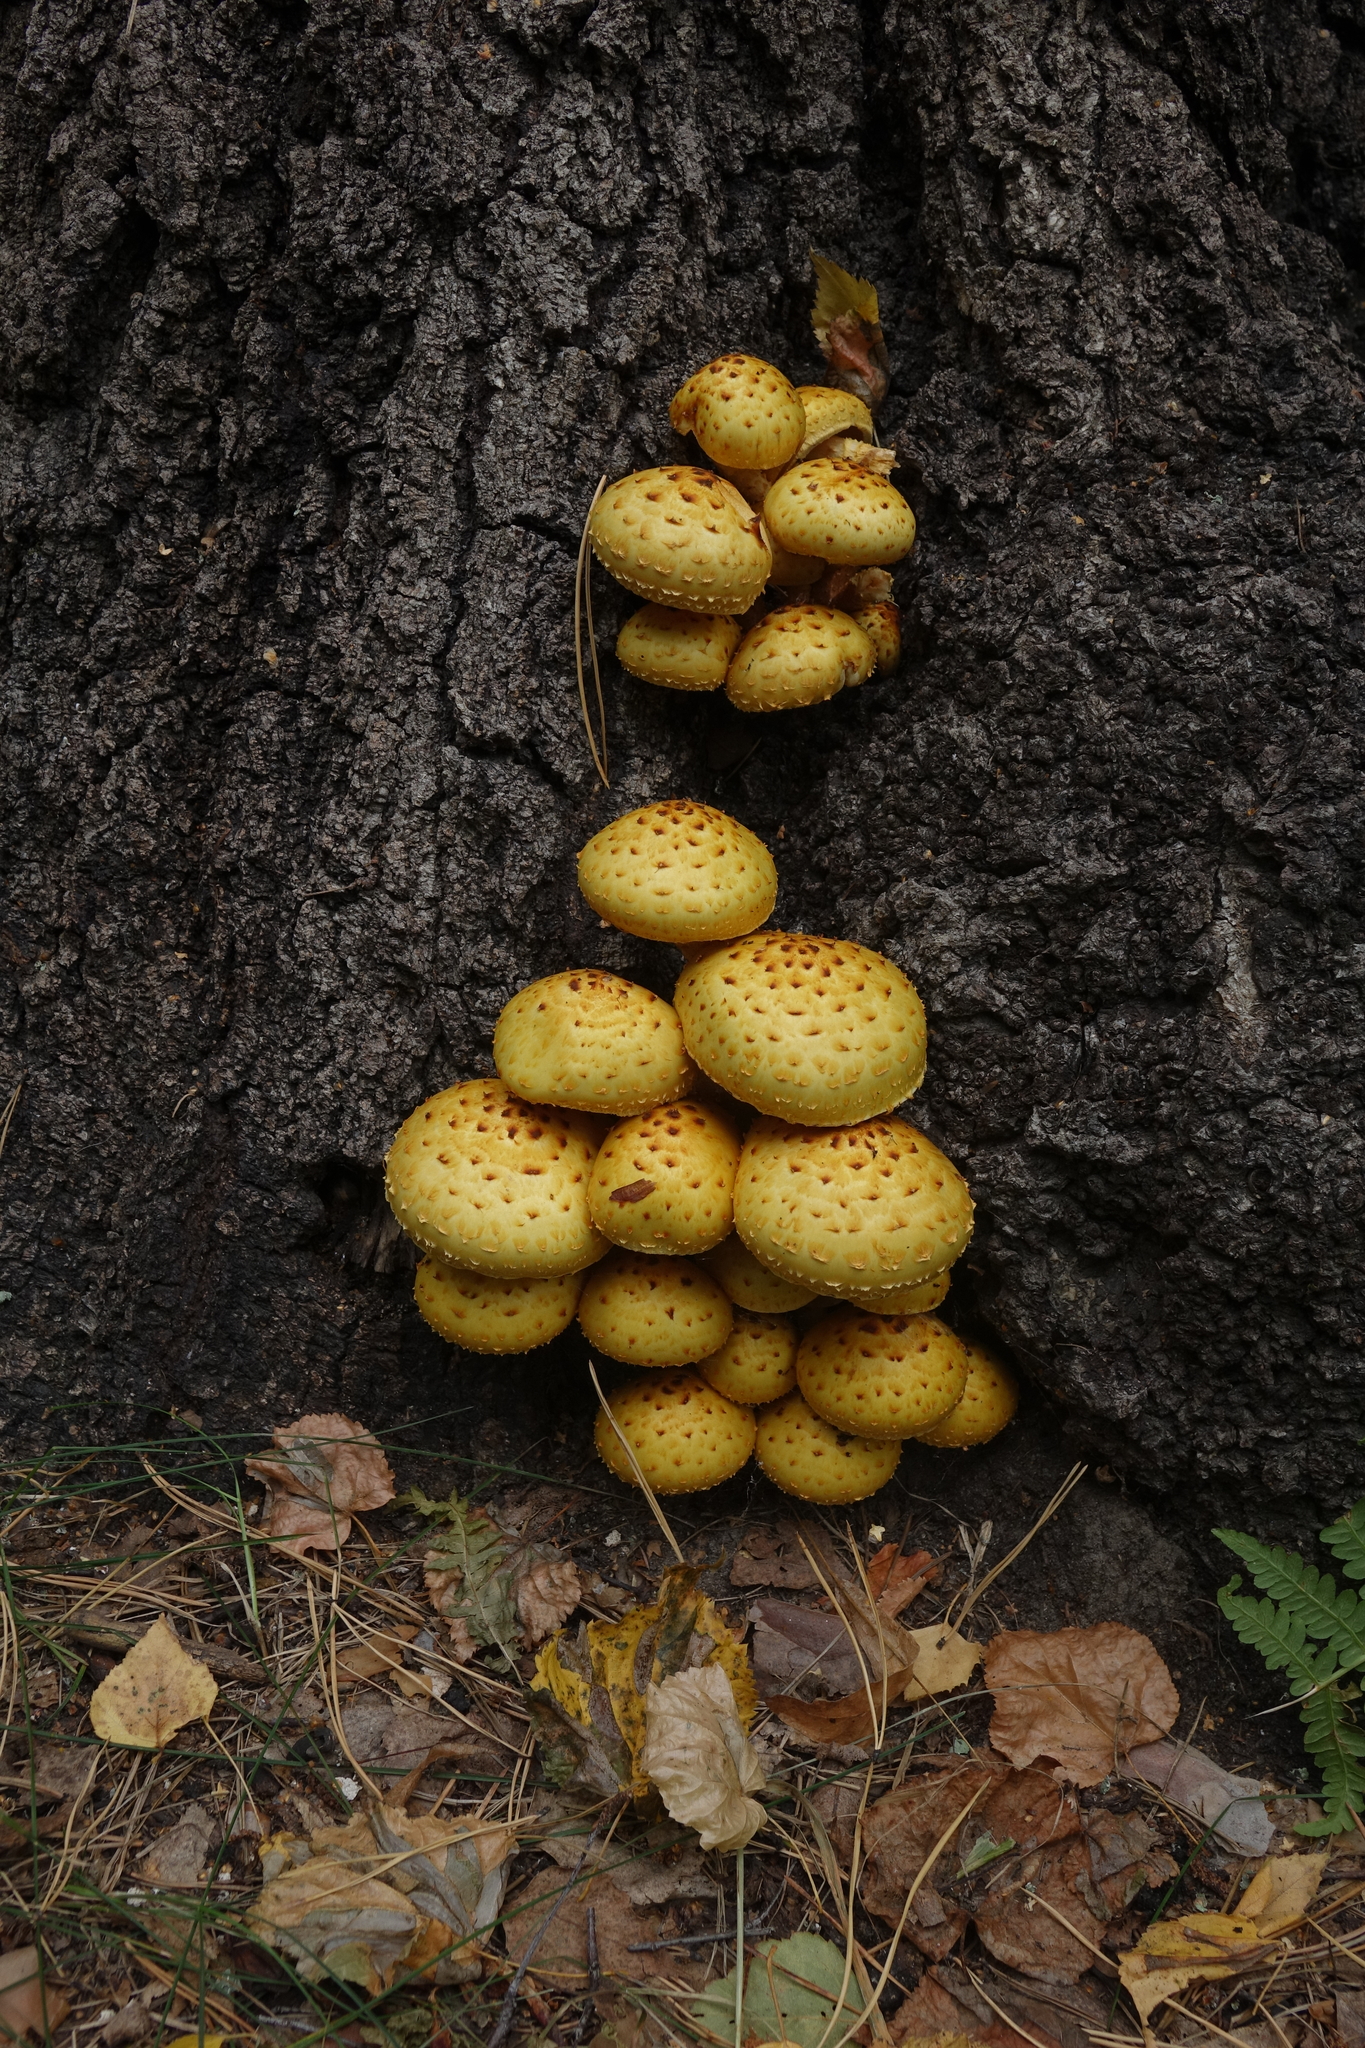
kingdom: Fungi
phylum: Basidiomycota
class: Agaricomycetes
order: Agaricales
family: Strophariaceae
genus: Pholiota
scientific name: Pholiota aurivella
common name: Golden scalycap
